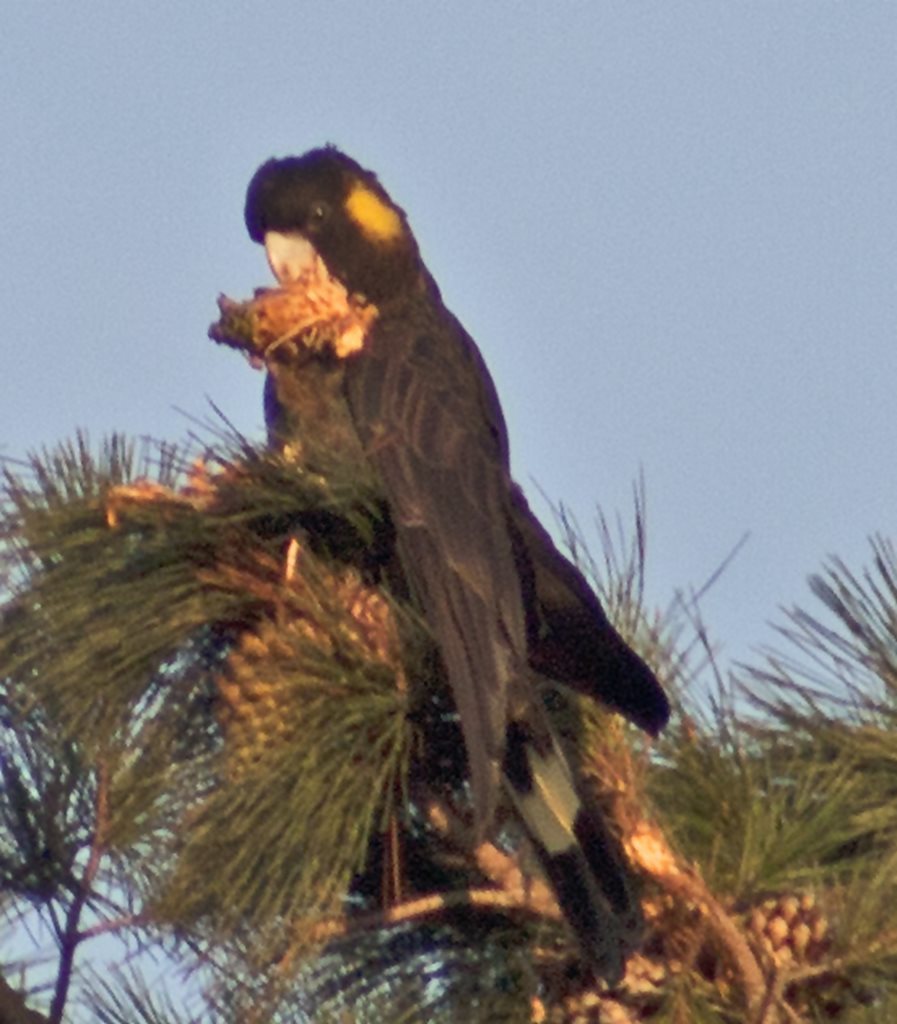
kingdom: Animalia
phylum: Chordata
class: Aves
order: Psittaciformes
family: Cacatuidae
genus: Zanda
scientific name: Zanda funerea
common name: Yellow-tailed black-cockatoo
